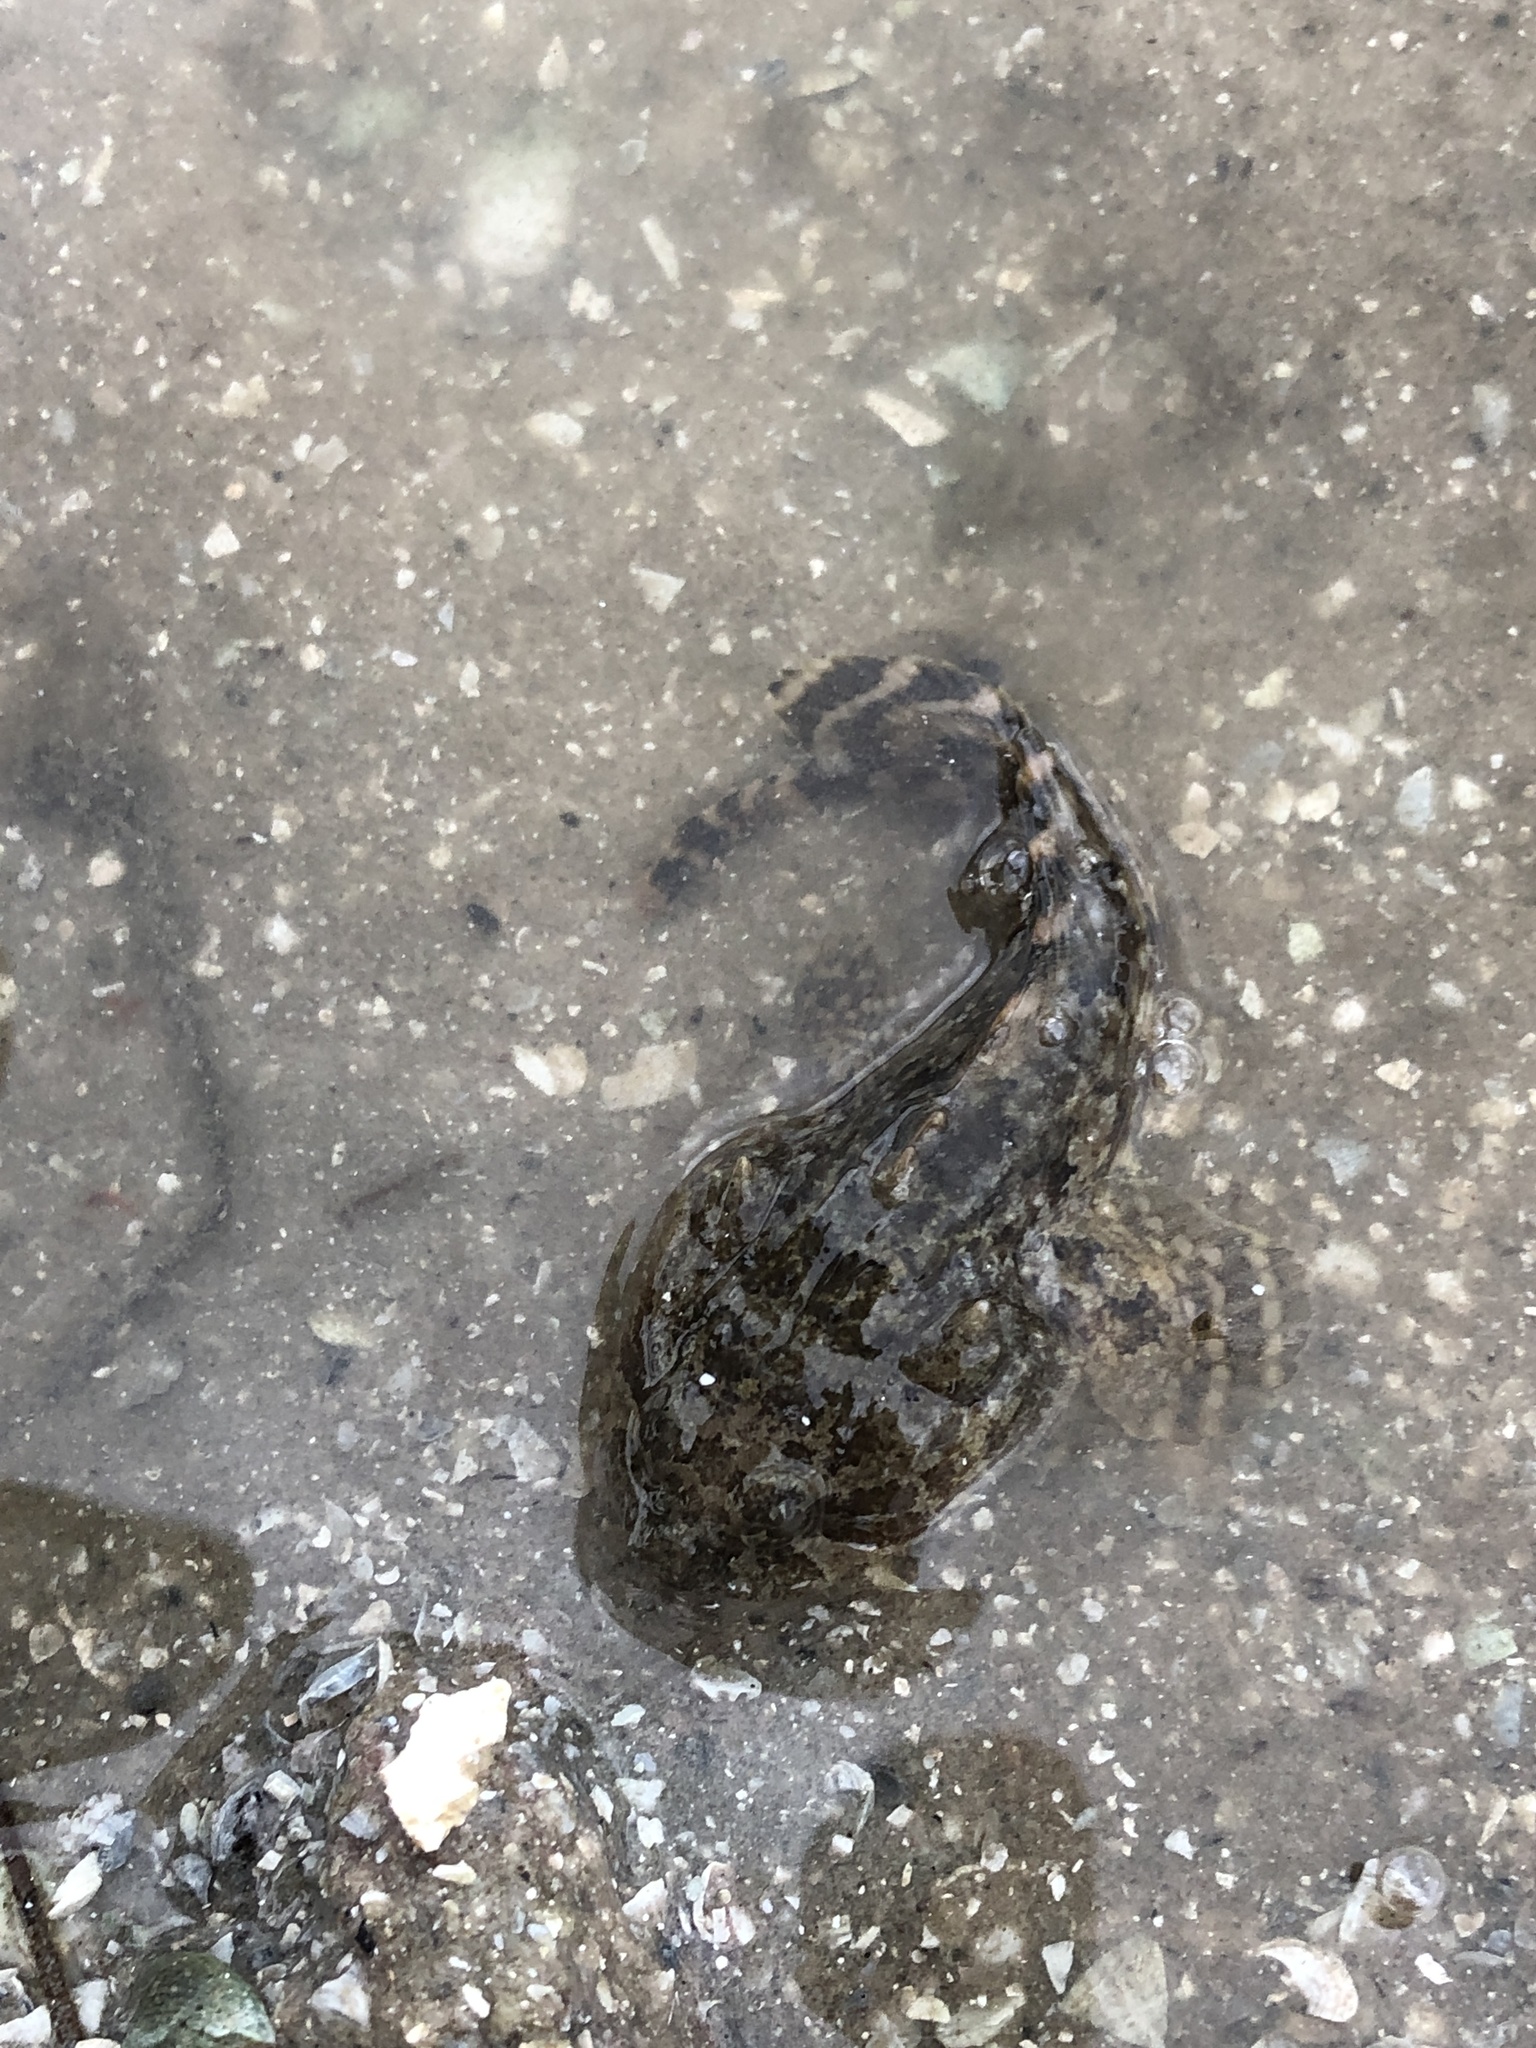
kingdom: Animalia
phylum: Chordata
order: Batrachoidiformes
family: Batrachoididae
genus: Opsanus
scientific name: Opsanus beta
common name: Gulf toadfish
